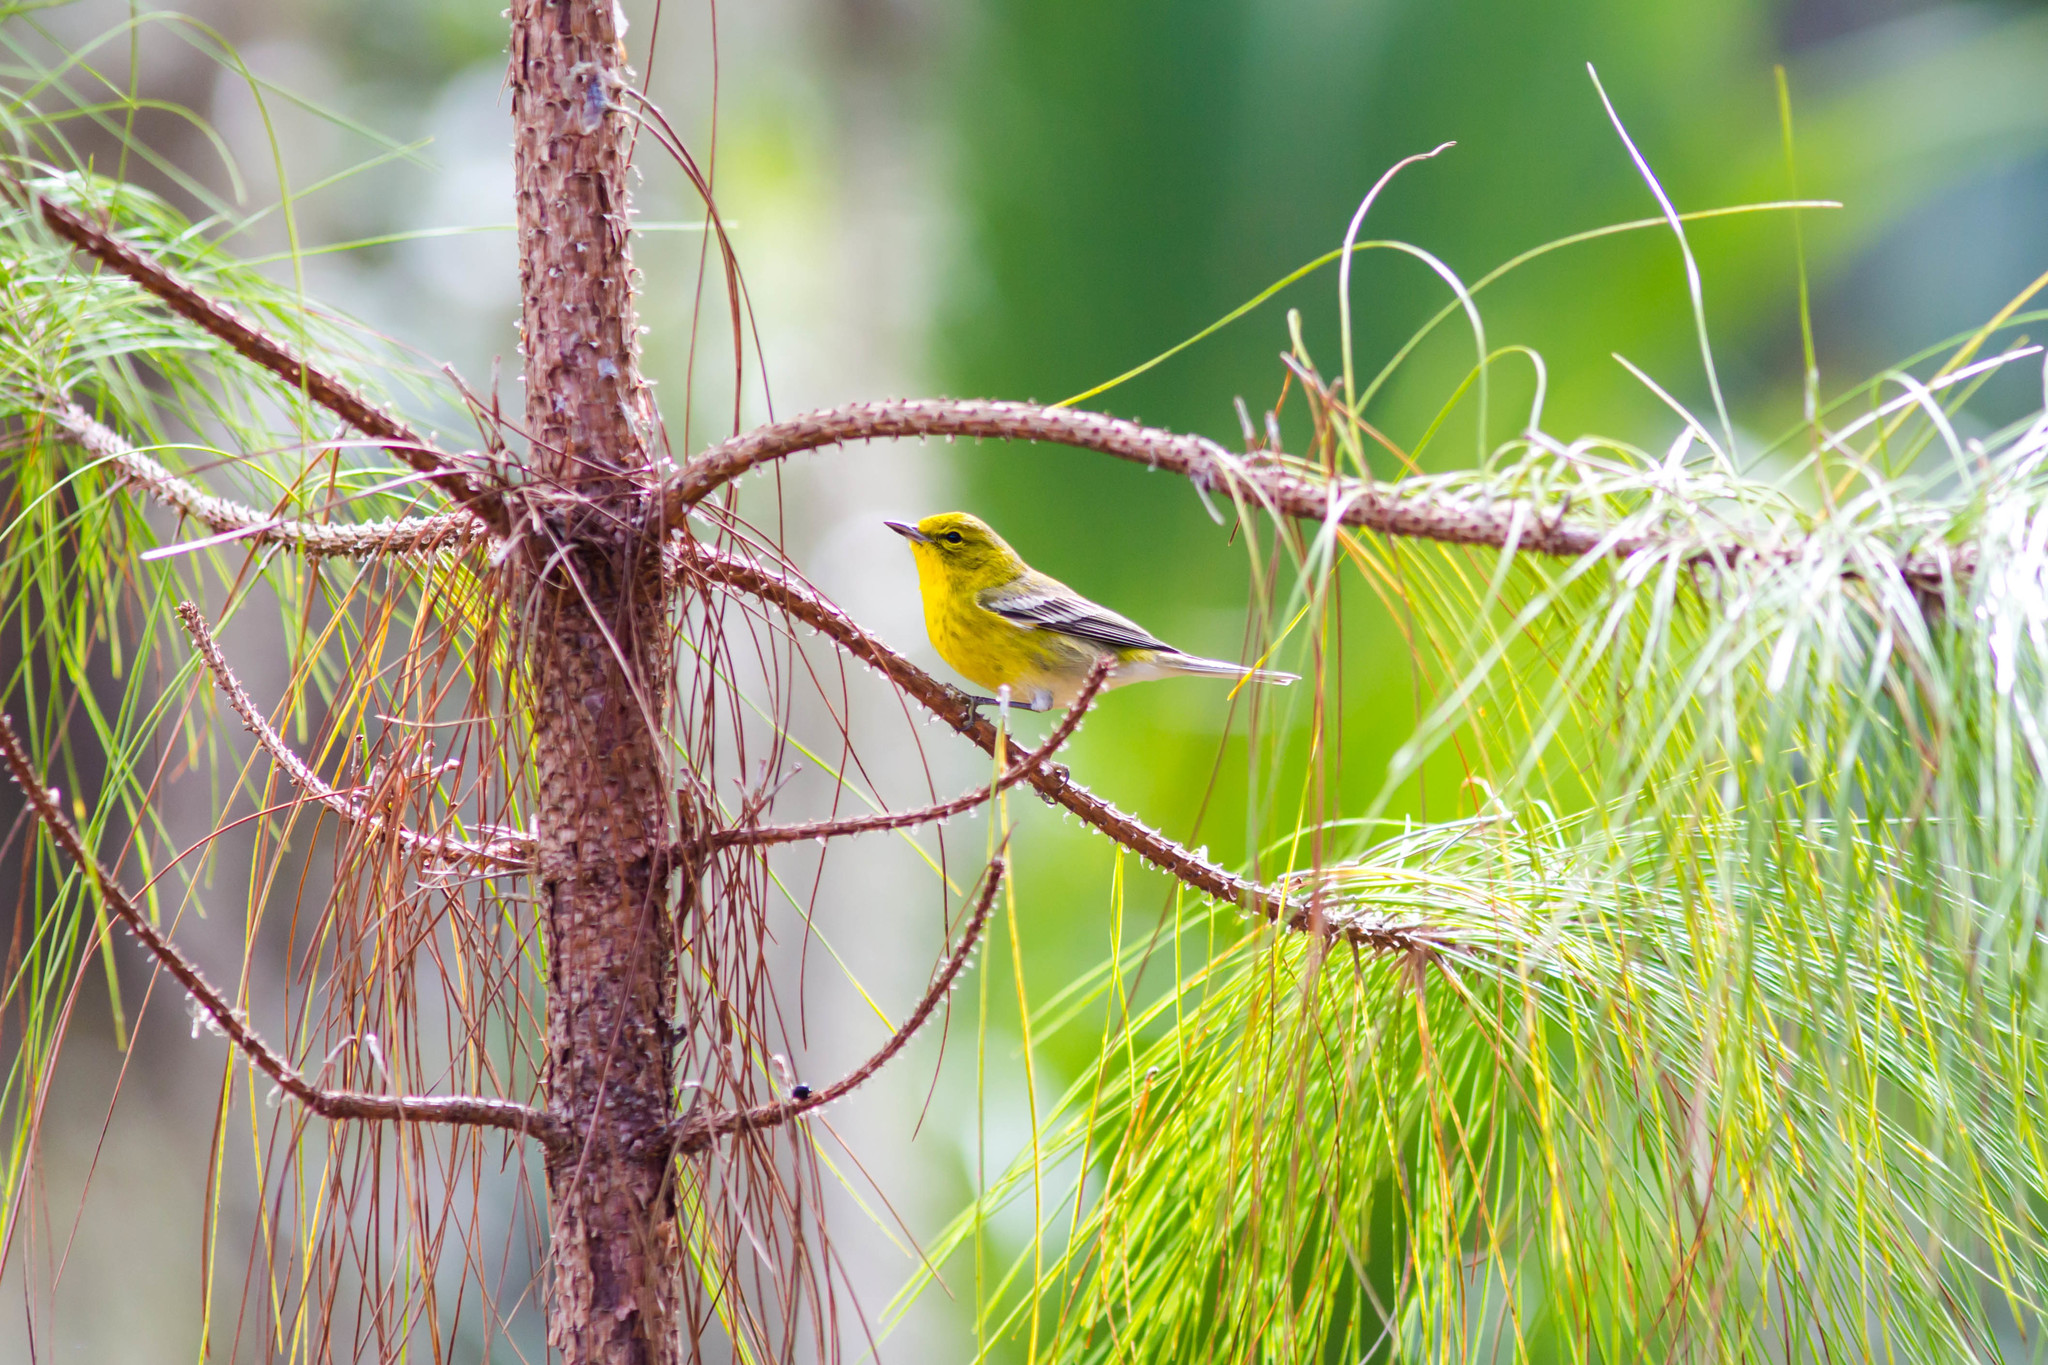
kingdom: Animalia
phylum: Chordata
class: Aves
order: Passeriformes
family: Parulidae
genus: Setophaga
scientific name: Setophaga pinus
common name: Pine warbler
